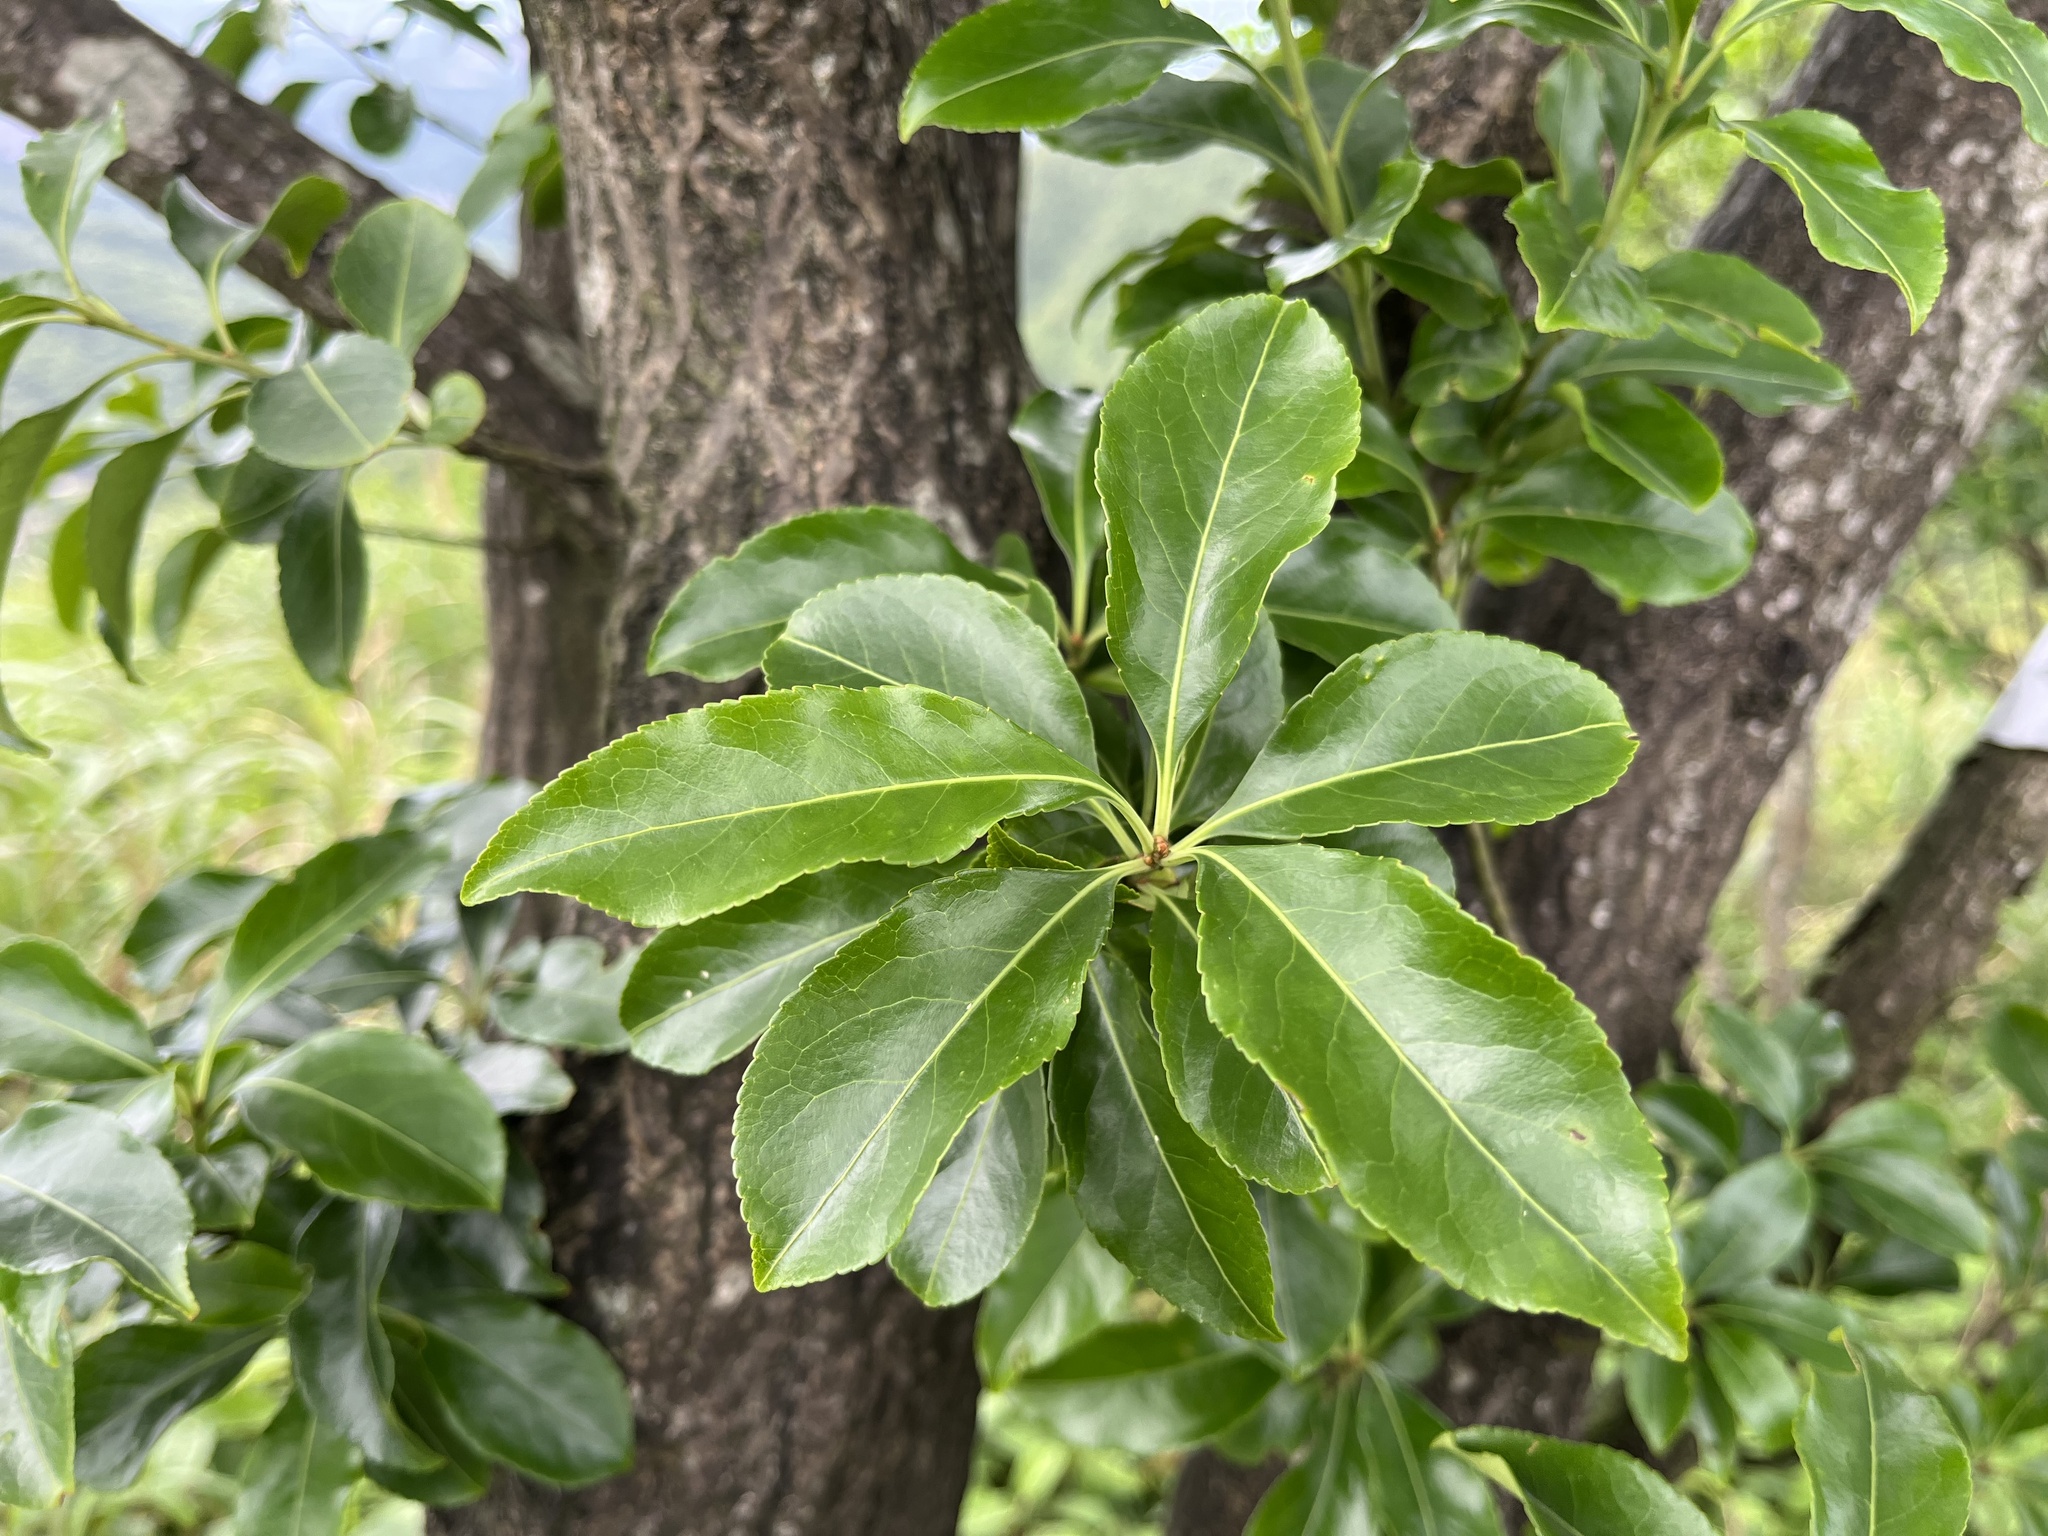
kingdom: Plantae
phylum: Tracheophyta
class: Magnoliopsida
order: Celastrales
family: Celastraceae
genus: Euonymus
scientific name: Euonymus carnosus
